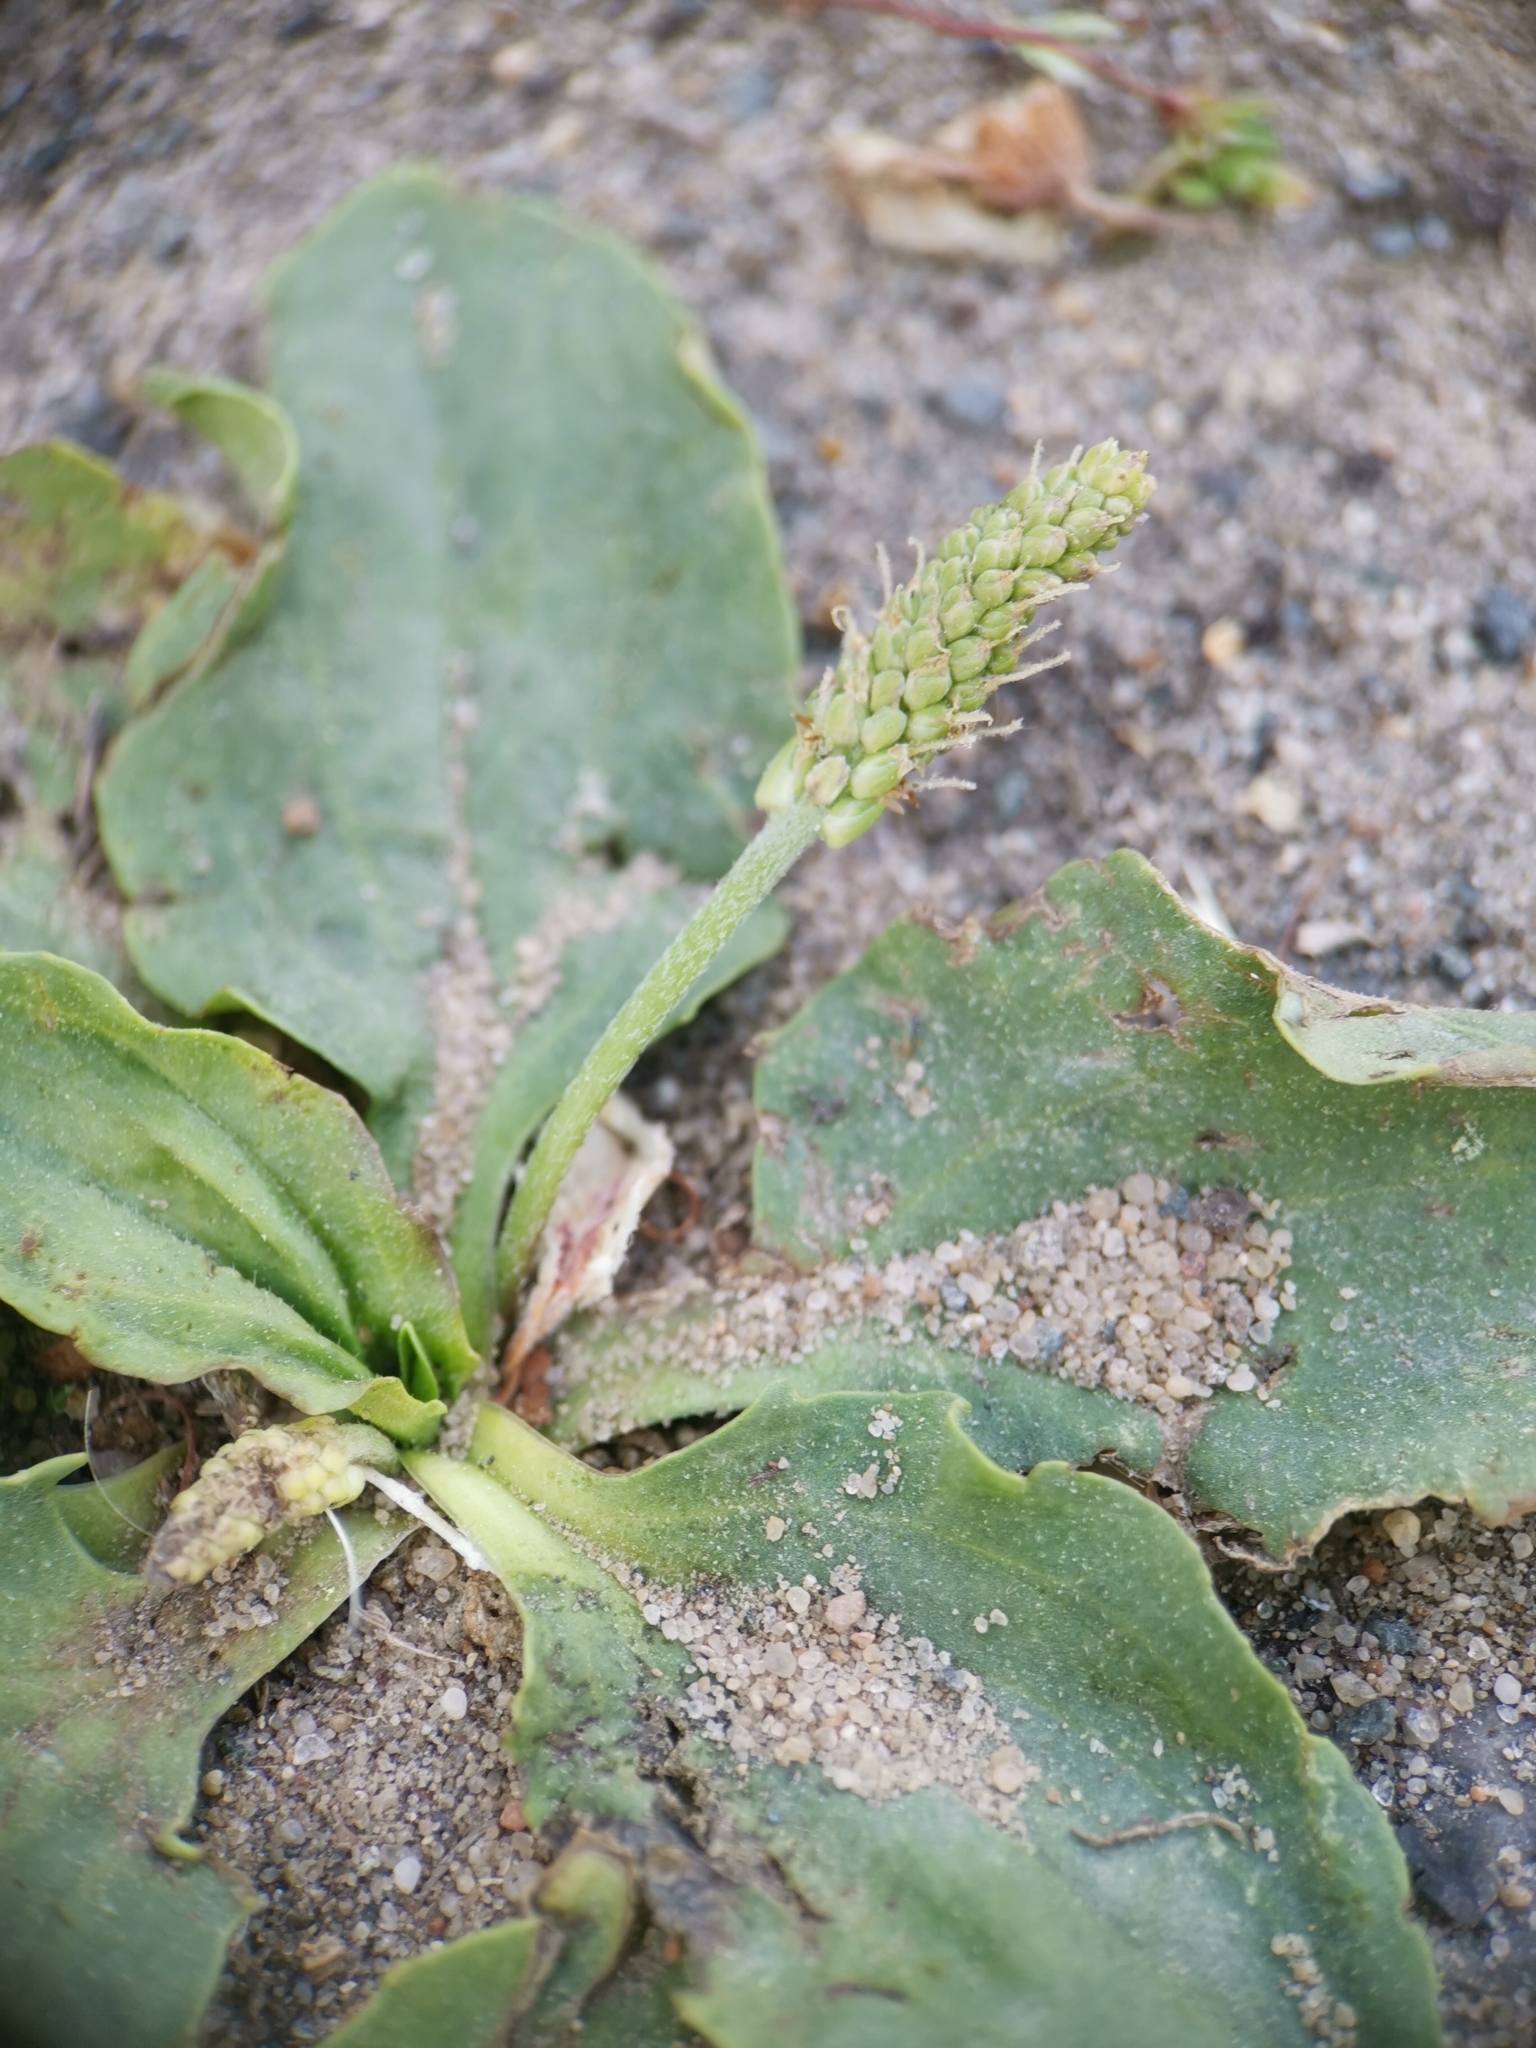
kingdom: Plantae
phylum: Tracheophyta
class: Magnoliopsida
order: Lamiales
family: Plantaginaceae
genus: Plantago
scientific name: Plantago major
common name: Common plantain
